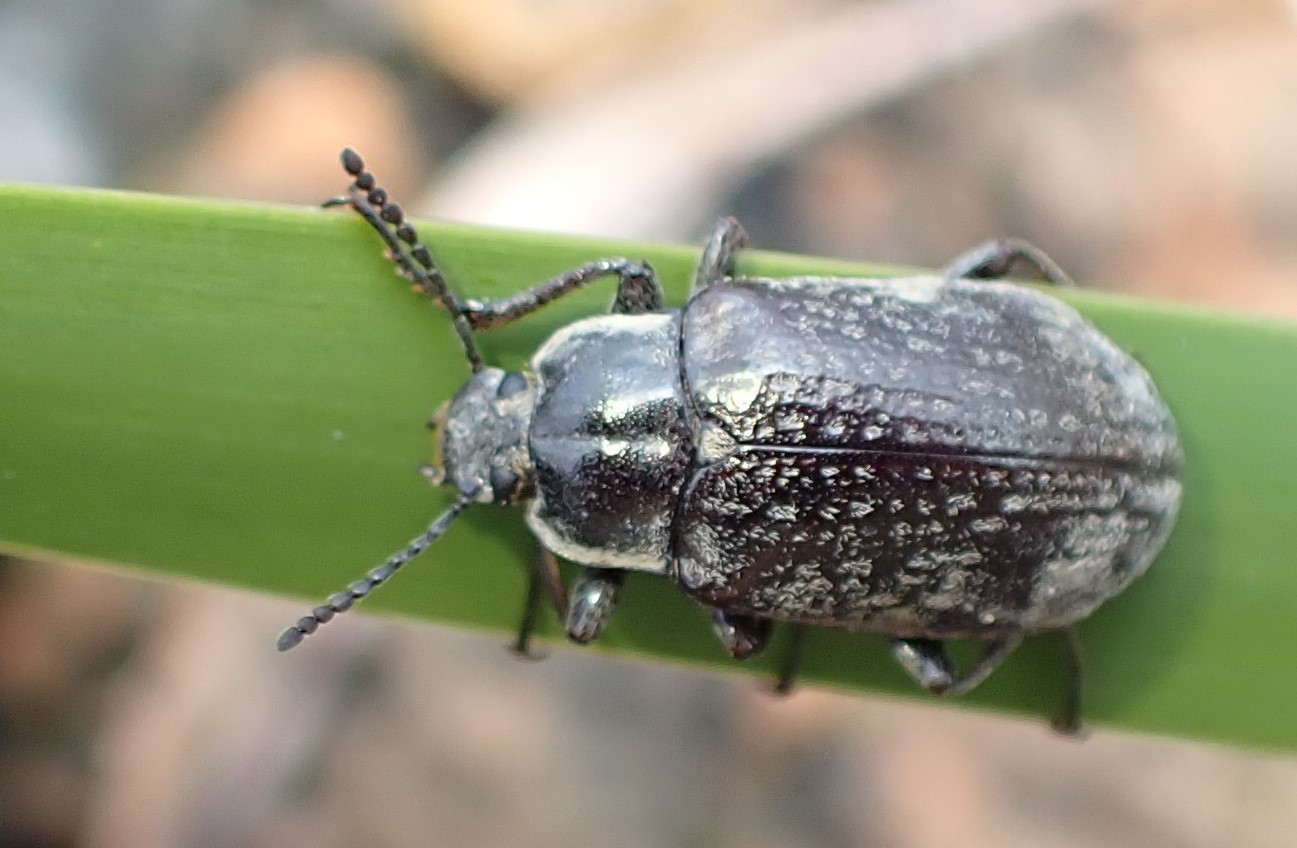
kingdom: Animalia
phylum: Arthropoda
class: Insecta
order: Coleoptera
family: Tenebrionidae
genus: Pachycoelia
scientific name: Pachycoelia
